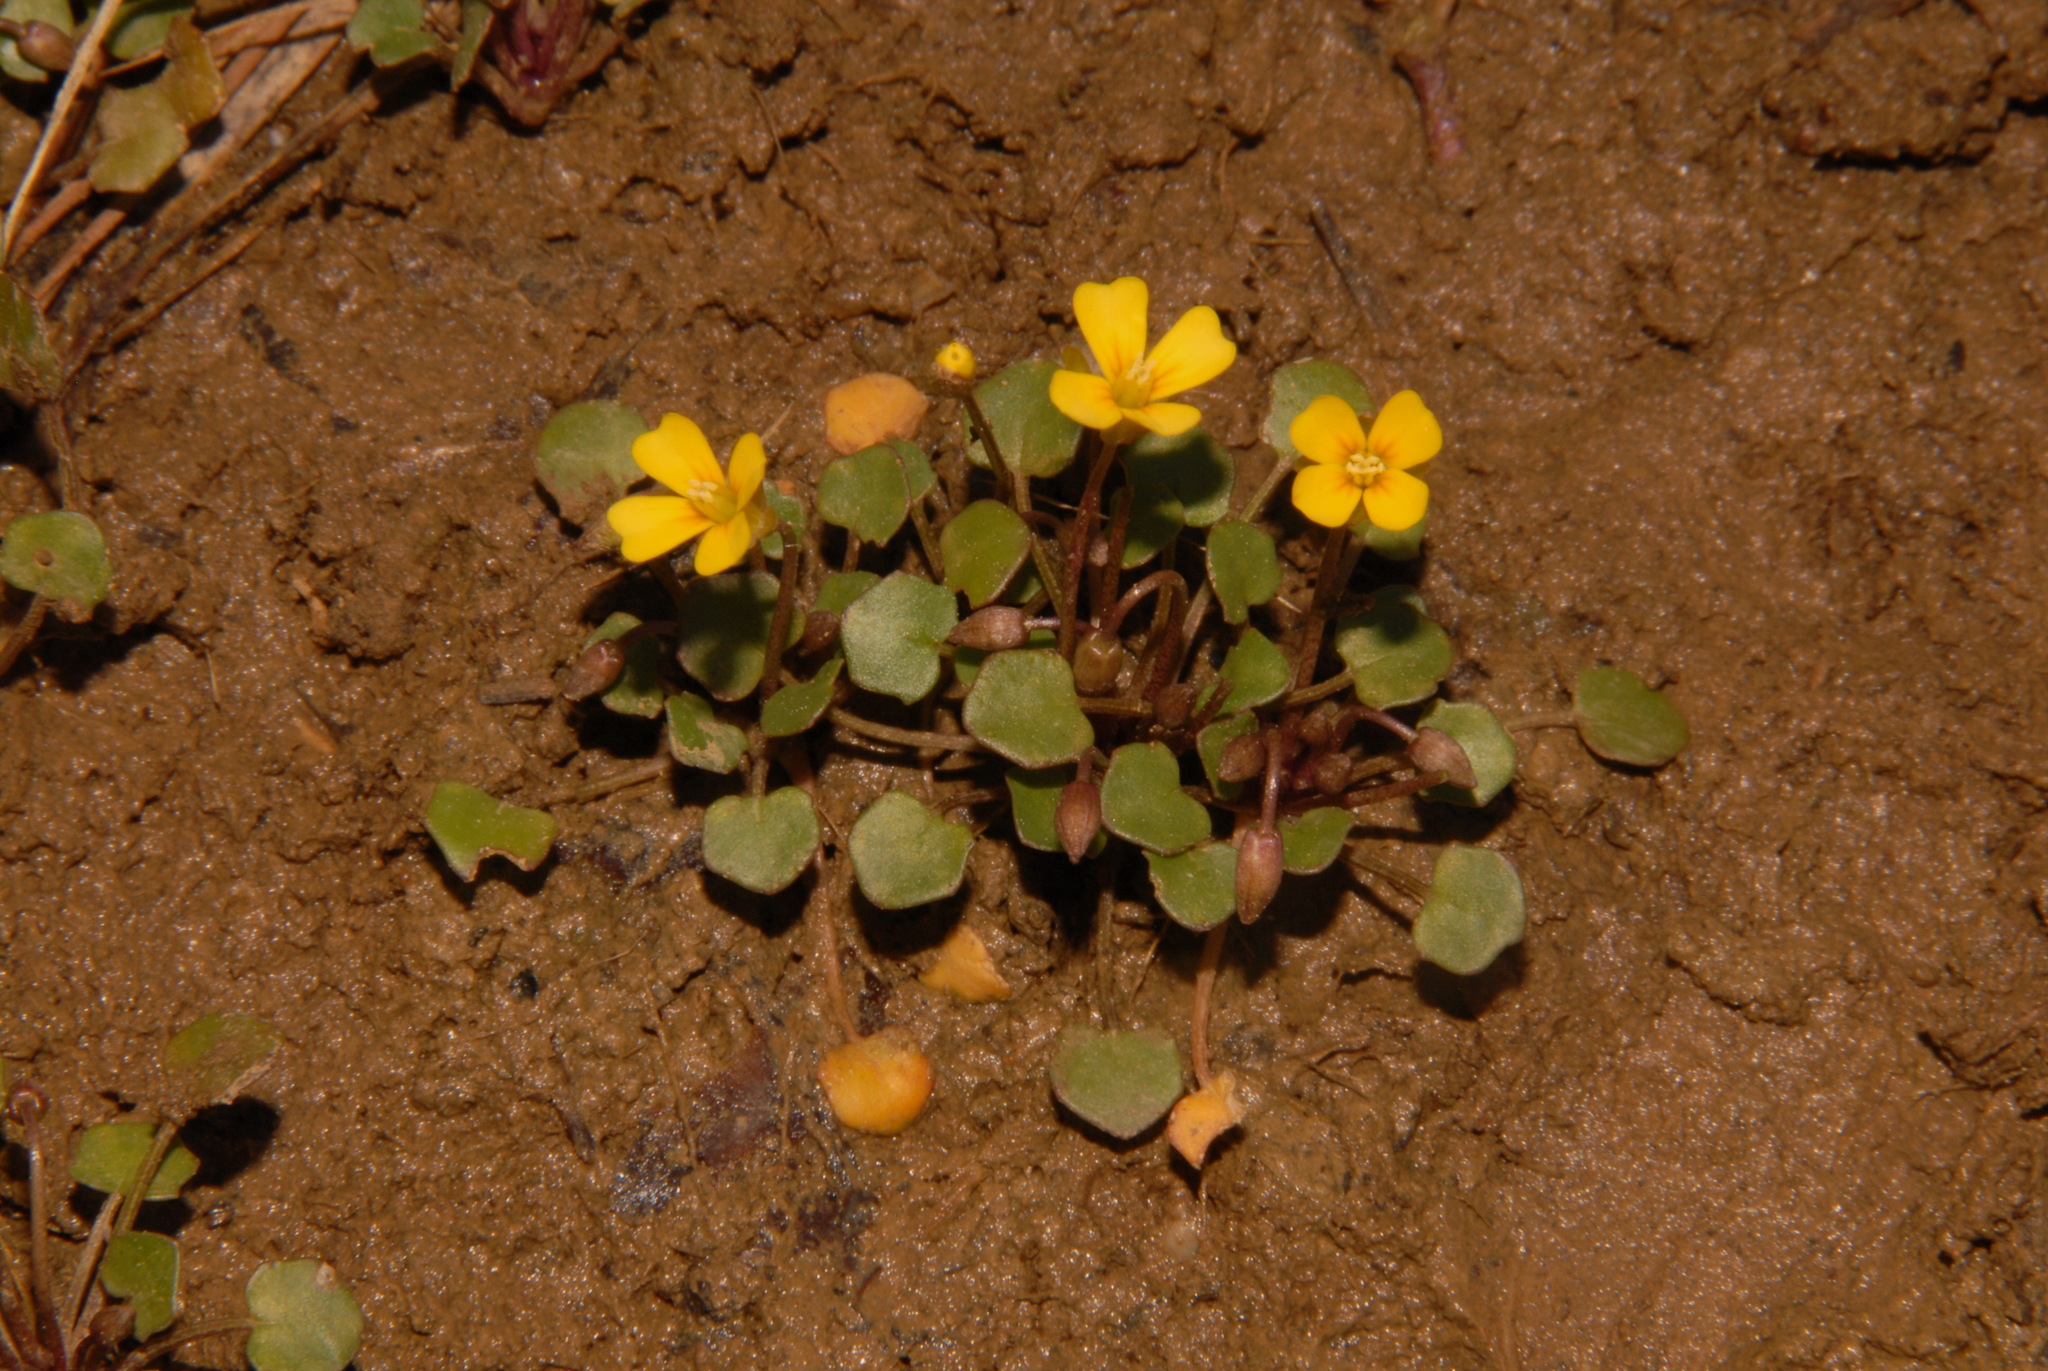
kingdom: Plantae
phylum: Tracheophyta
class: Magnoliopsida
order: Brassicales
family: Brassicaceae
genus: Leavenworthia
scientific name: Leavenworthia exigua
